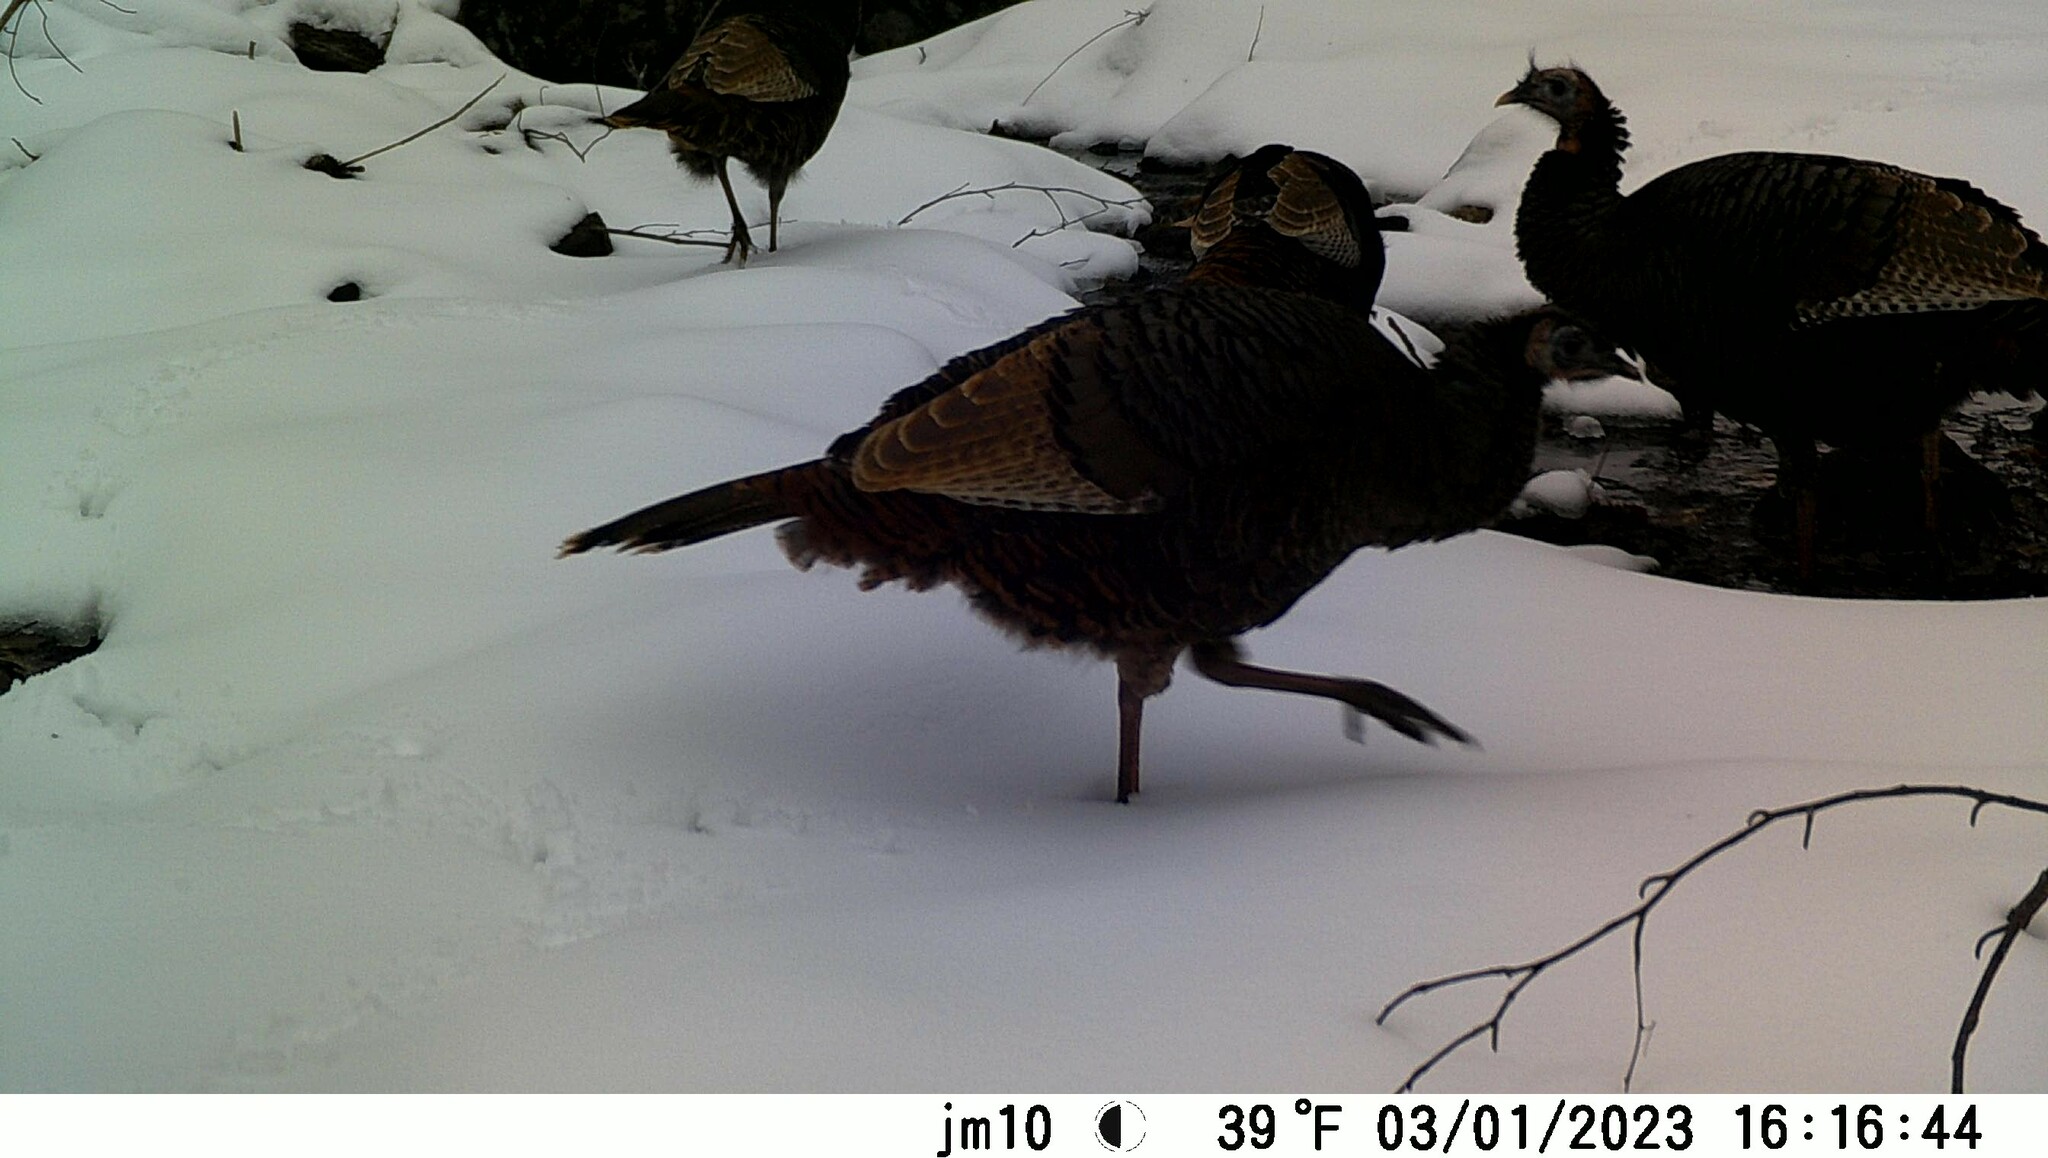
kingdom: Animalia
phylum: Chordata
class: Aves
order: Galliformes
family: Phasianidae
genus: Meleagris
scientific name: Meleagris gallopavo
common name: Wild turkey
